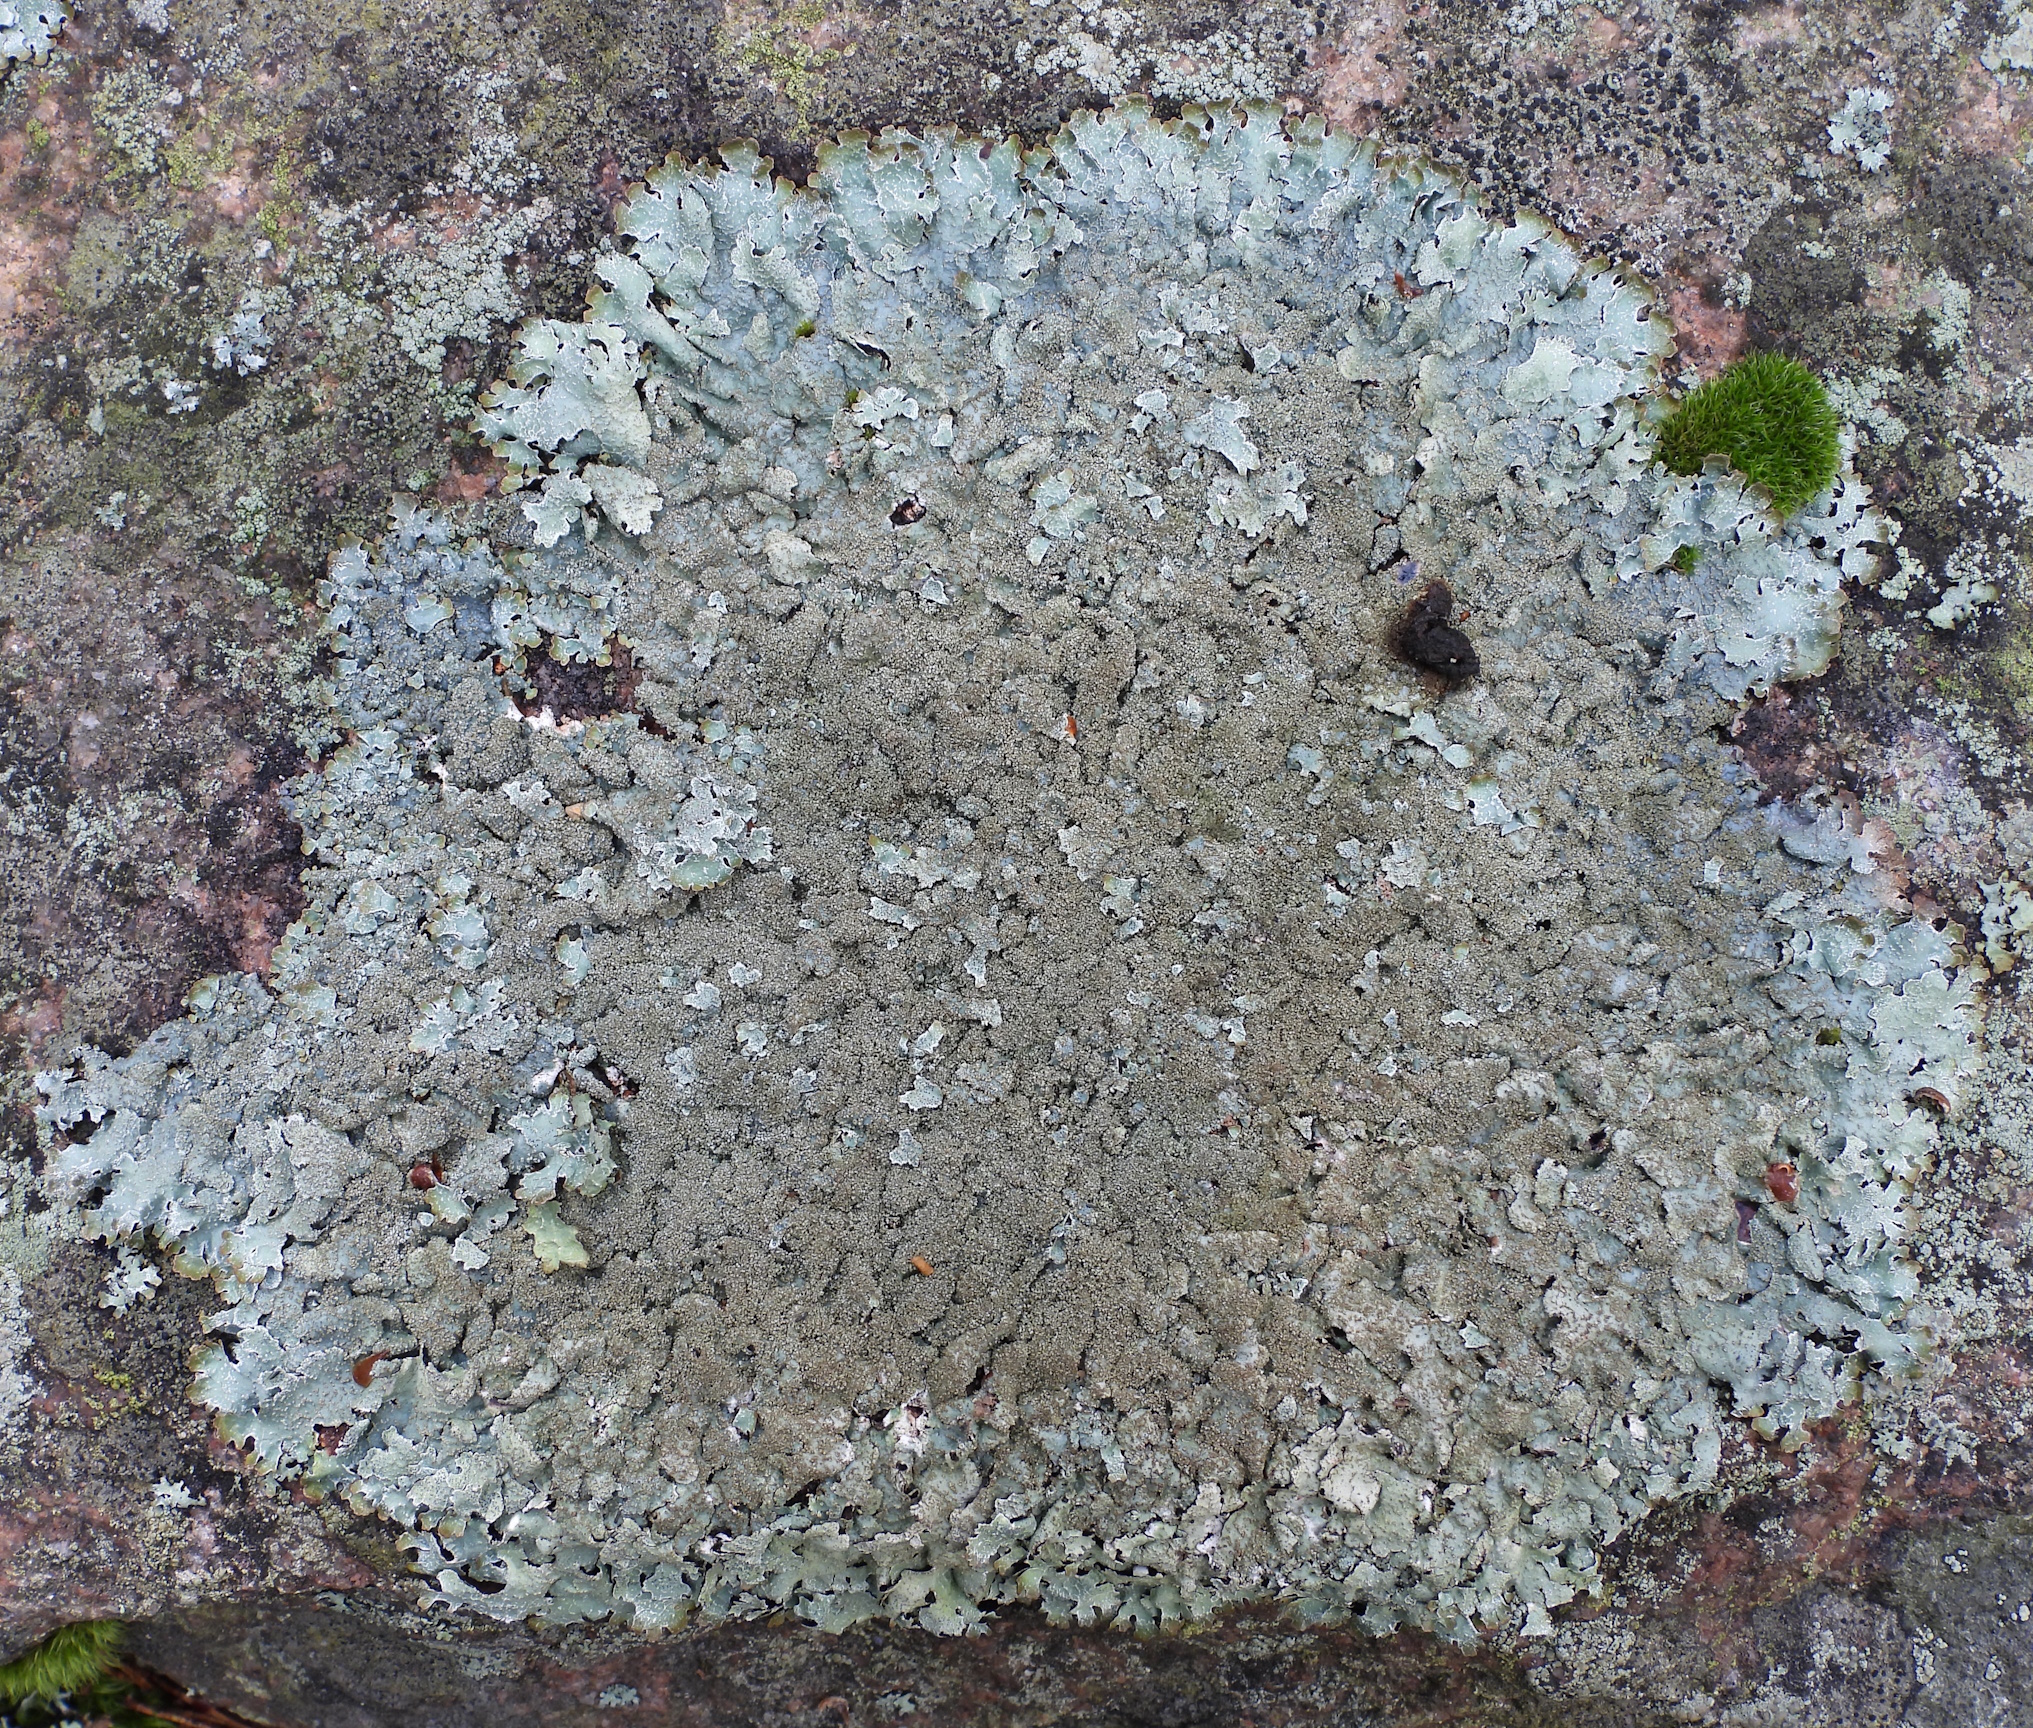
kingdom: Fungi
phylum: Ascomycota
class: Lecanoromycetes
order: Lecanorales
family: Parmeliaceae
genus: Parmelia
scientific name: Parmelia saxatilis
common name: Salted shield lichen
